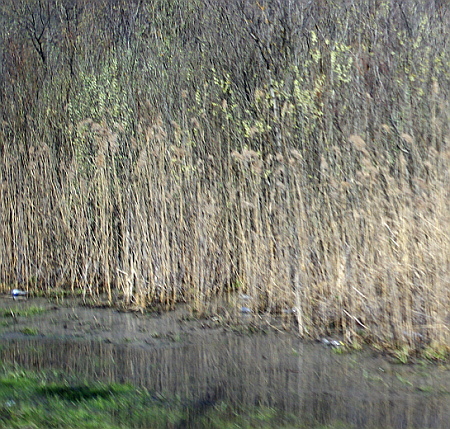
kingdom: Plantae
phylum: Tracheophyta
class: Liliopsida
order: Poales
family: Poaceae
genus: Phragmites
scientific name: Phragmites australis
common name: Common reed
